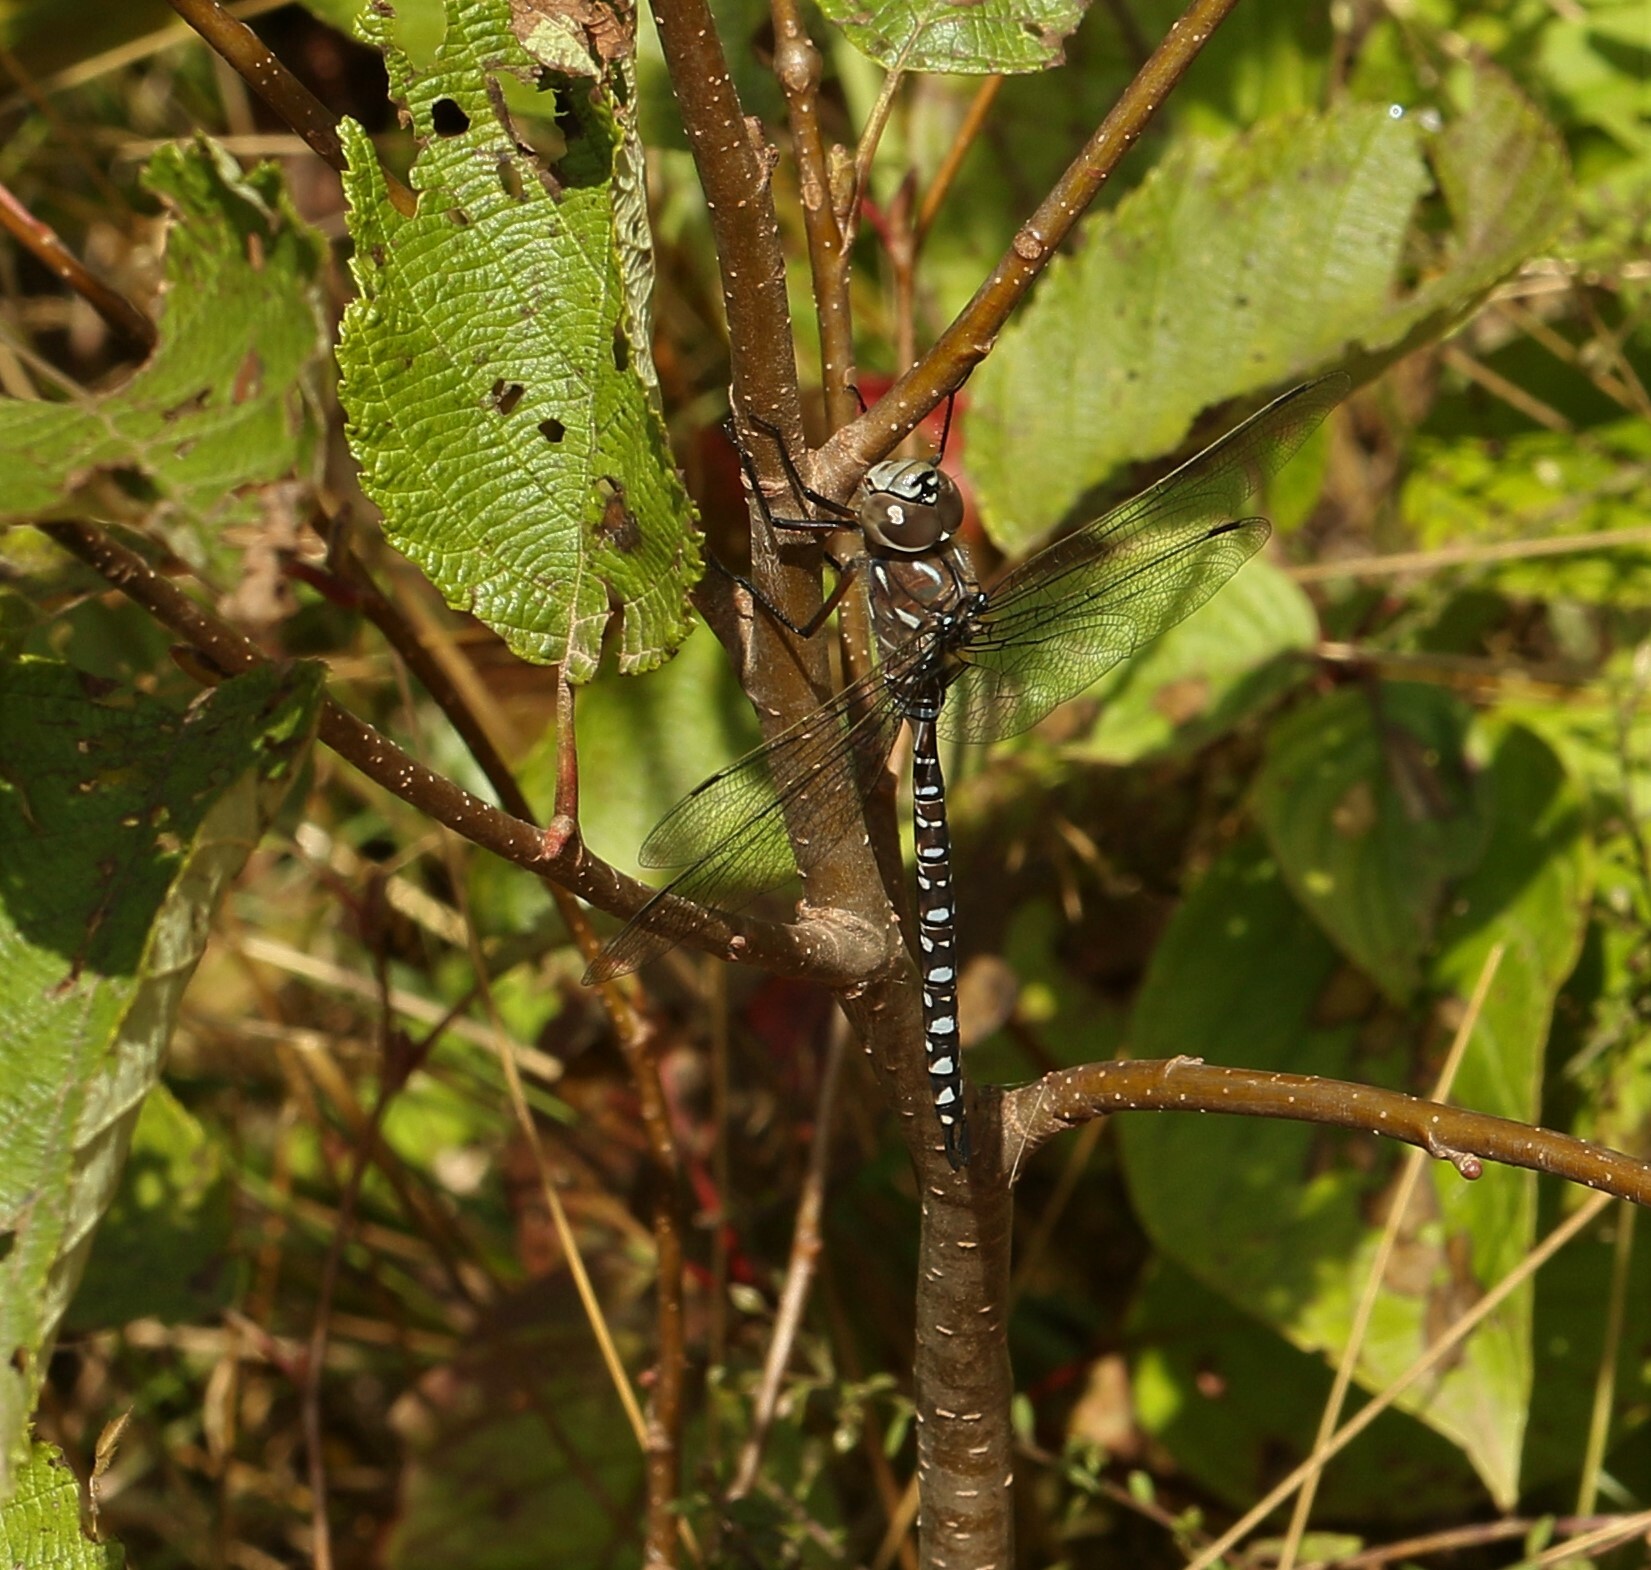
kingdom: Animalia
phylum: Arthropoda
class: Insecta
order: Odonata
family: Aeshnidae
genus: Aeshna
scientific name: Aeshna interrupta
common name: Variable darner
